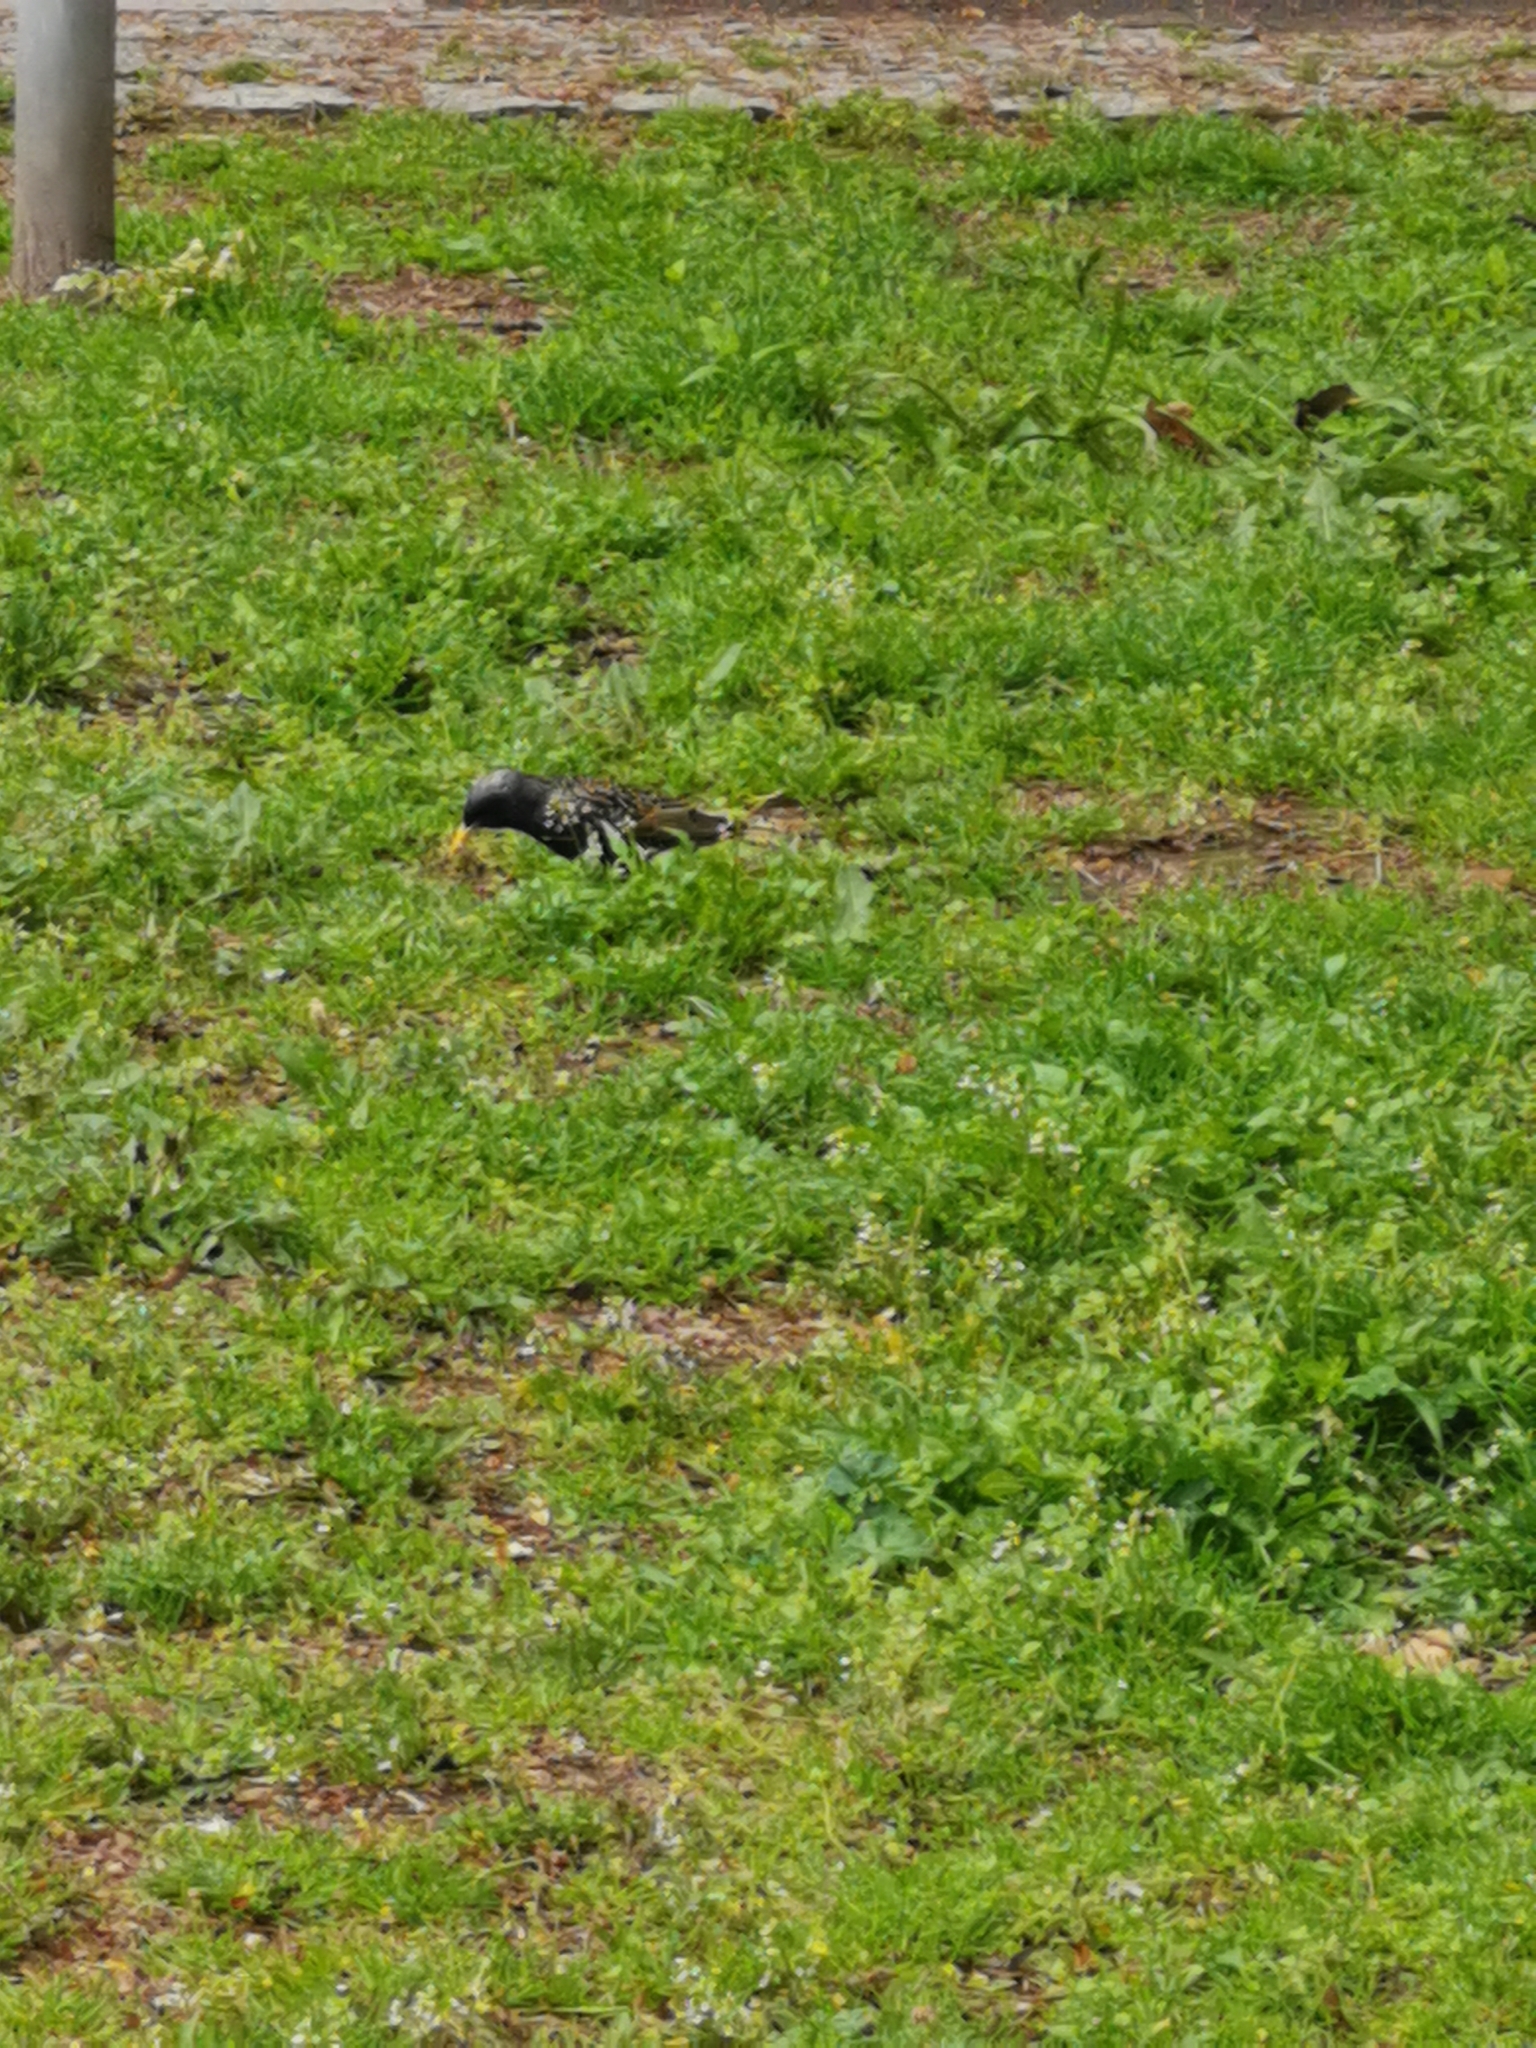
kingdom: Animalia
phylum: Chordata
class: Aves
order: Passeriformes
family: Sturnidae
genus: Sturnus
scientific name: Sturnus vulgaris
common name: Common starling
